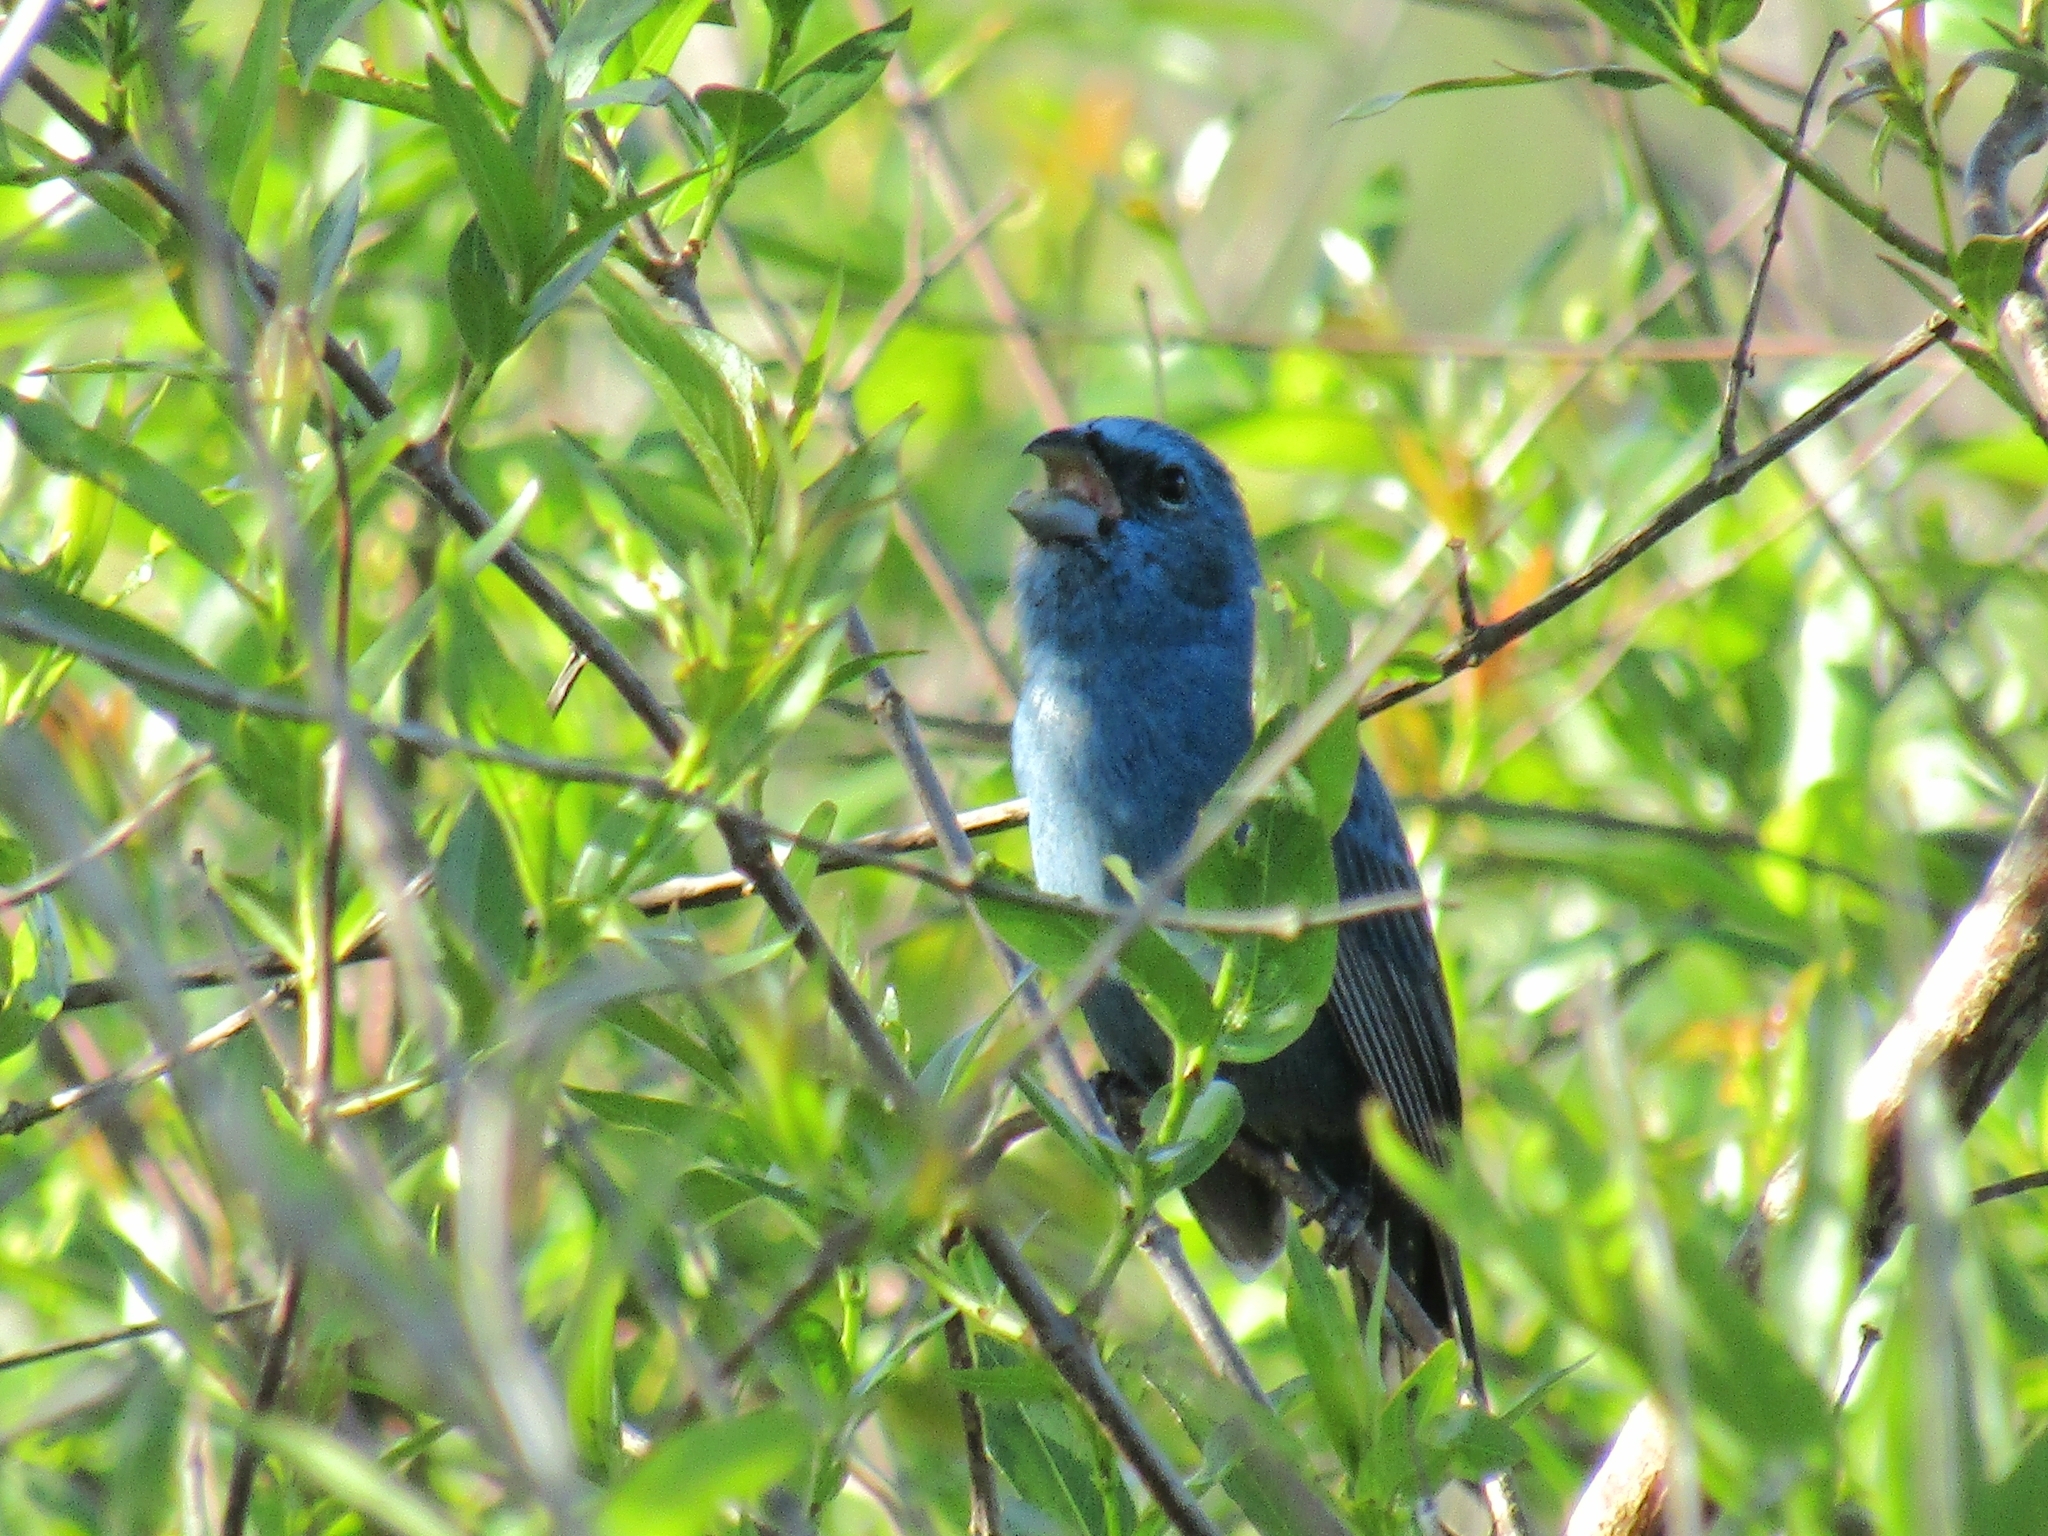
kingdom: Animalia
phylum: Chordata
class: Aves
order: Passeriformes
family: Cardinalidae
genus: Cyanoloxia
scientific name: Cyanoloxia glaucocaerulea
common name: Glaucous-blue grosbeak
